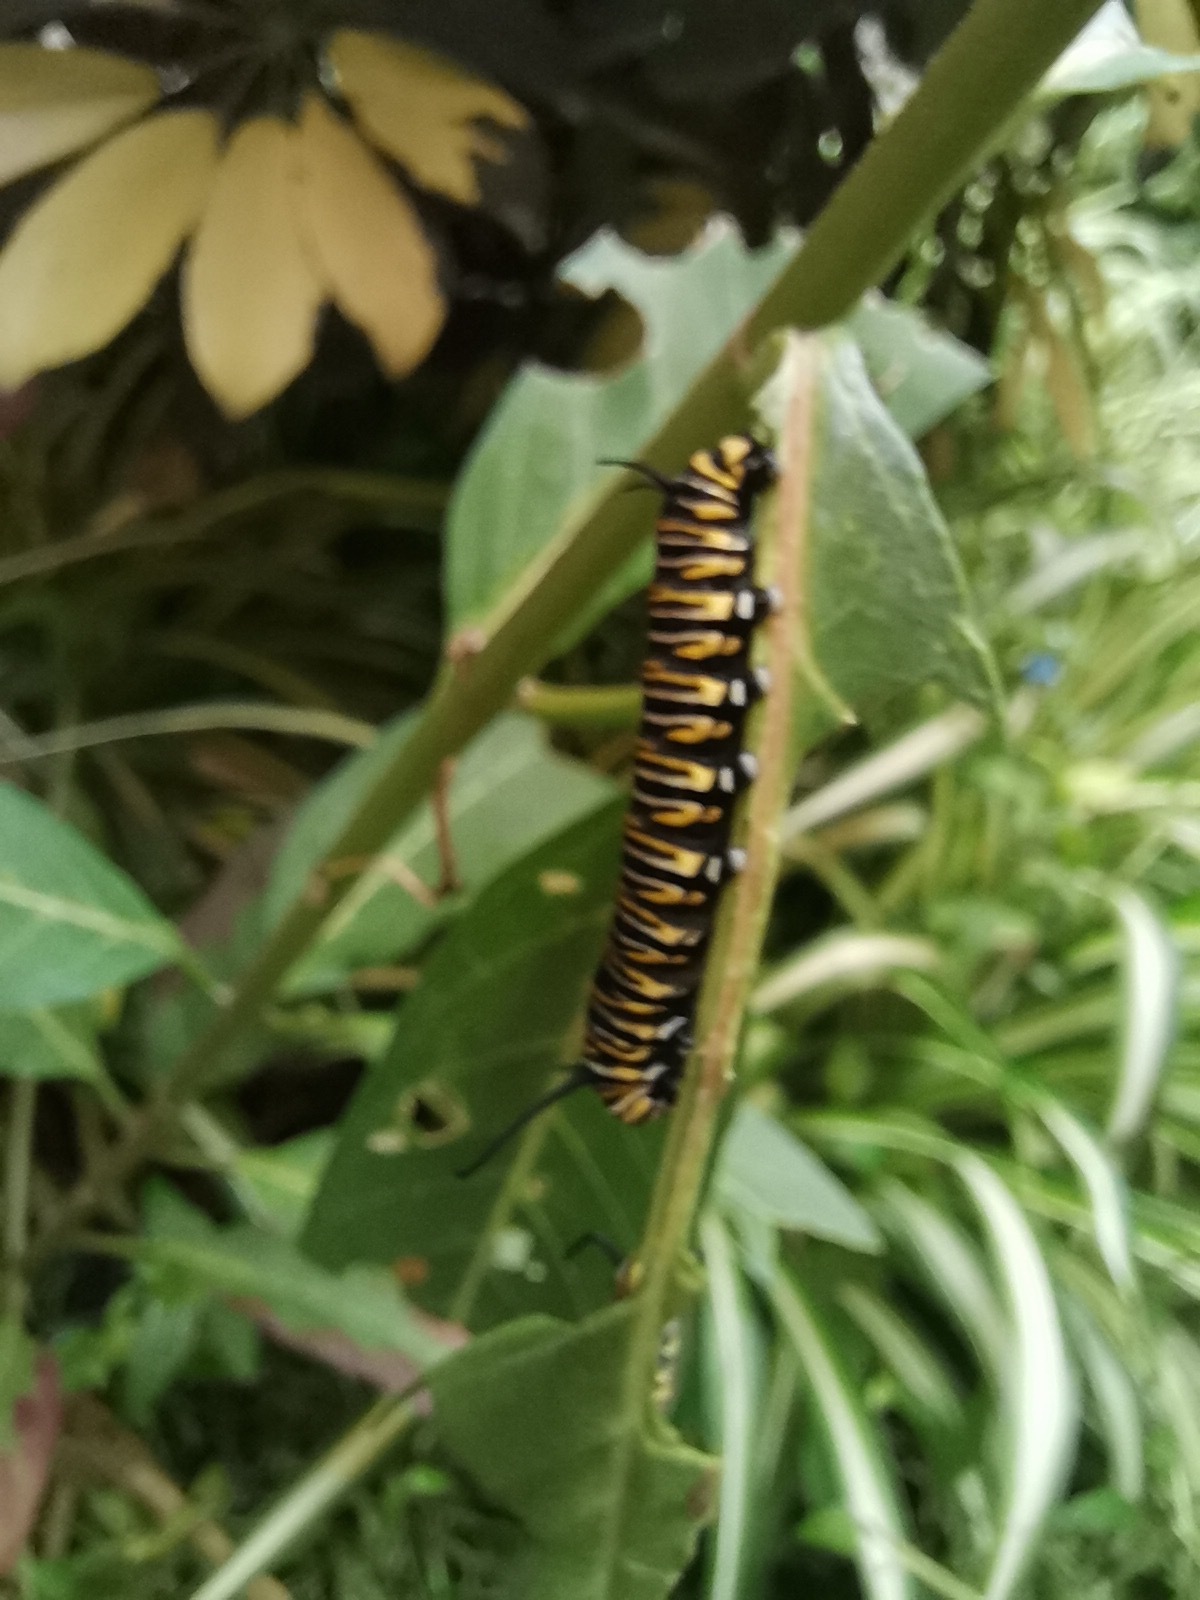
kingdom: Animalia
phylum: Arthropoda
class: Insecta
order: Lepidoptera
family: Nymphalidae
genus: Danaus
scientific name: Danaus plexippus
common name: Monarch
